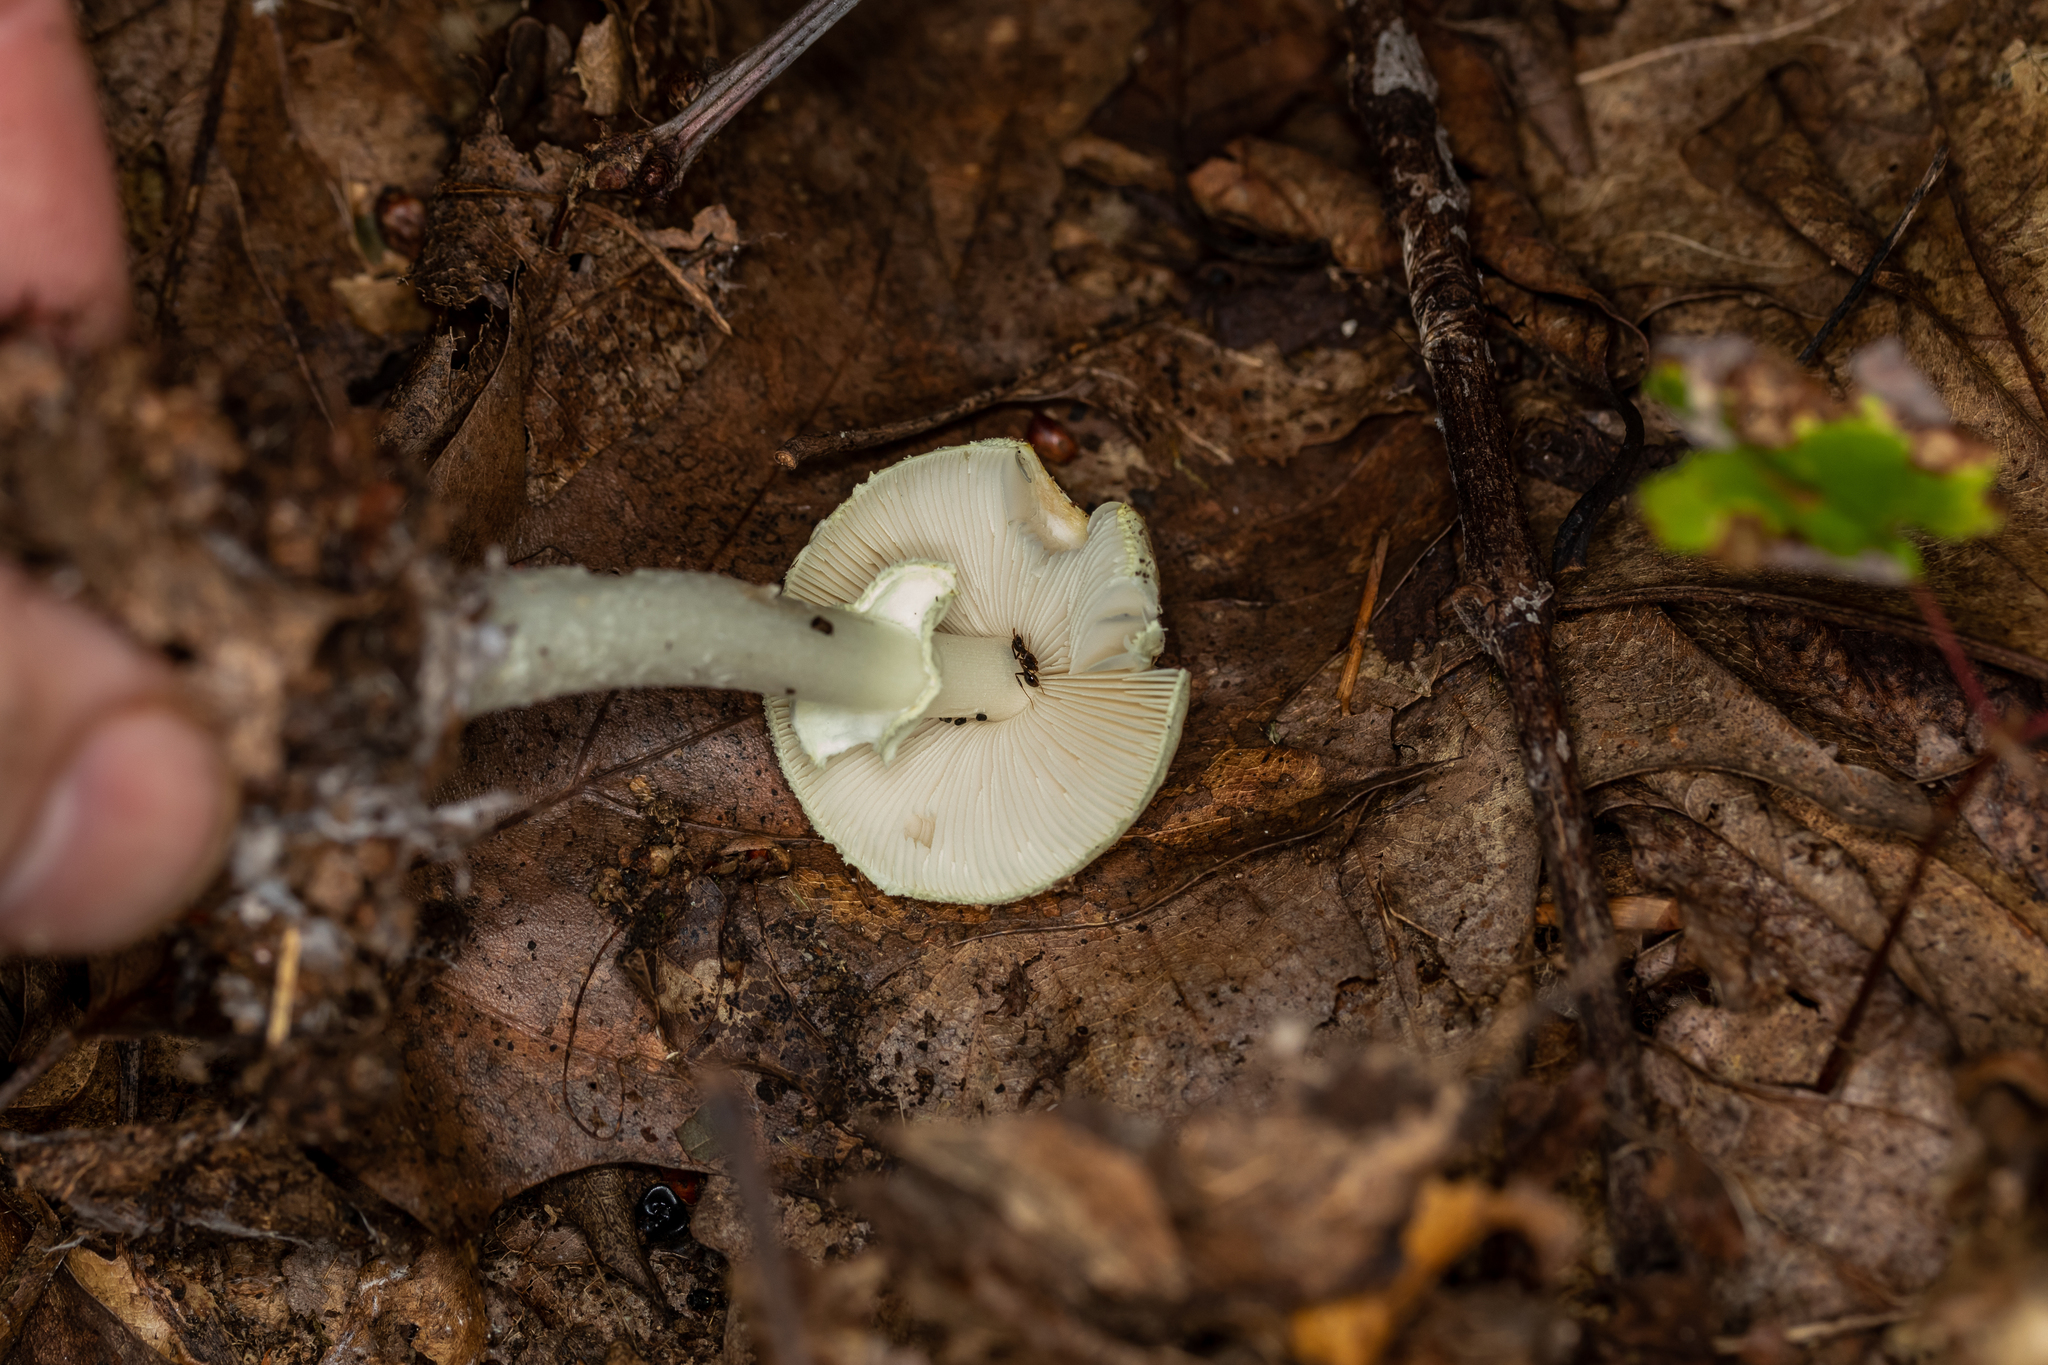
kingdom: Fungi
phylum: Basidiomycota
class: Agaricomycetes
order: Agaricales
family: Amanitaceae
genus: Amanita
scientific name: Amanita lavendula
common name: Coker's lavender staining amanita
